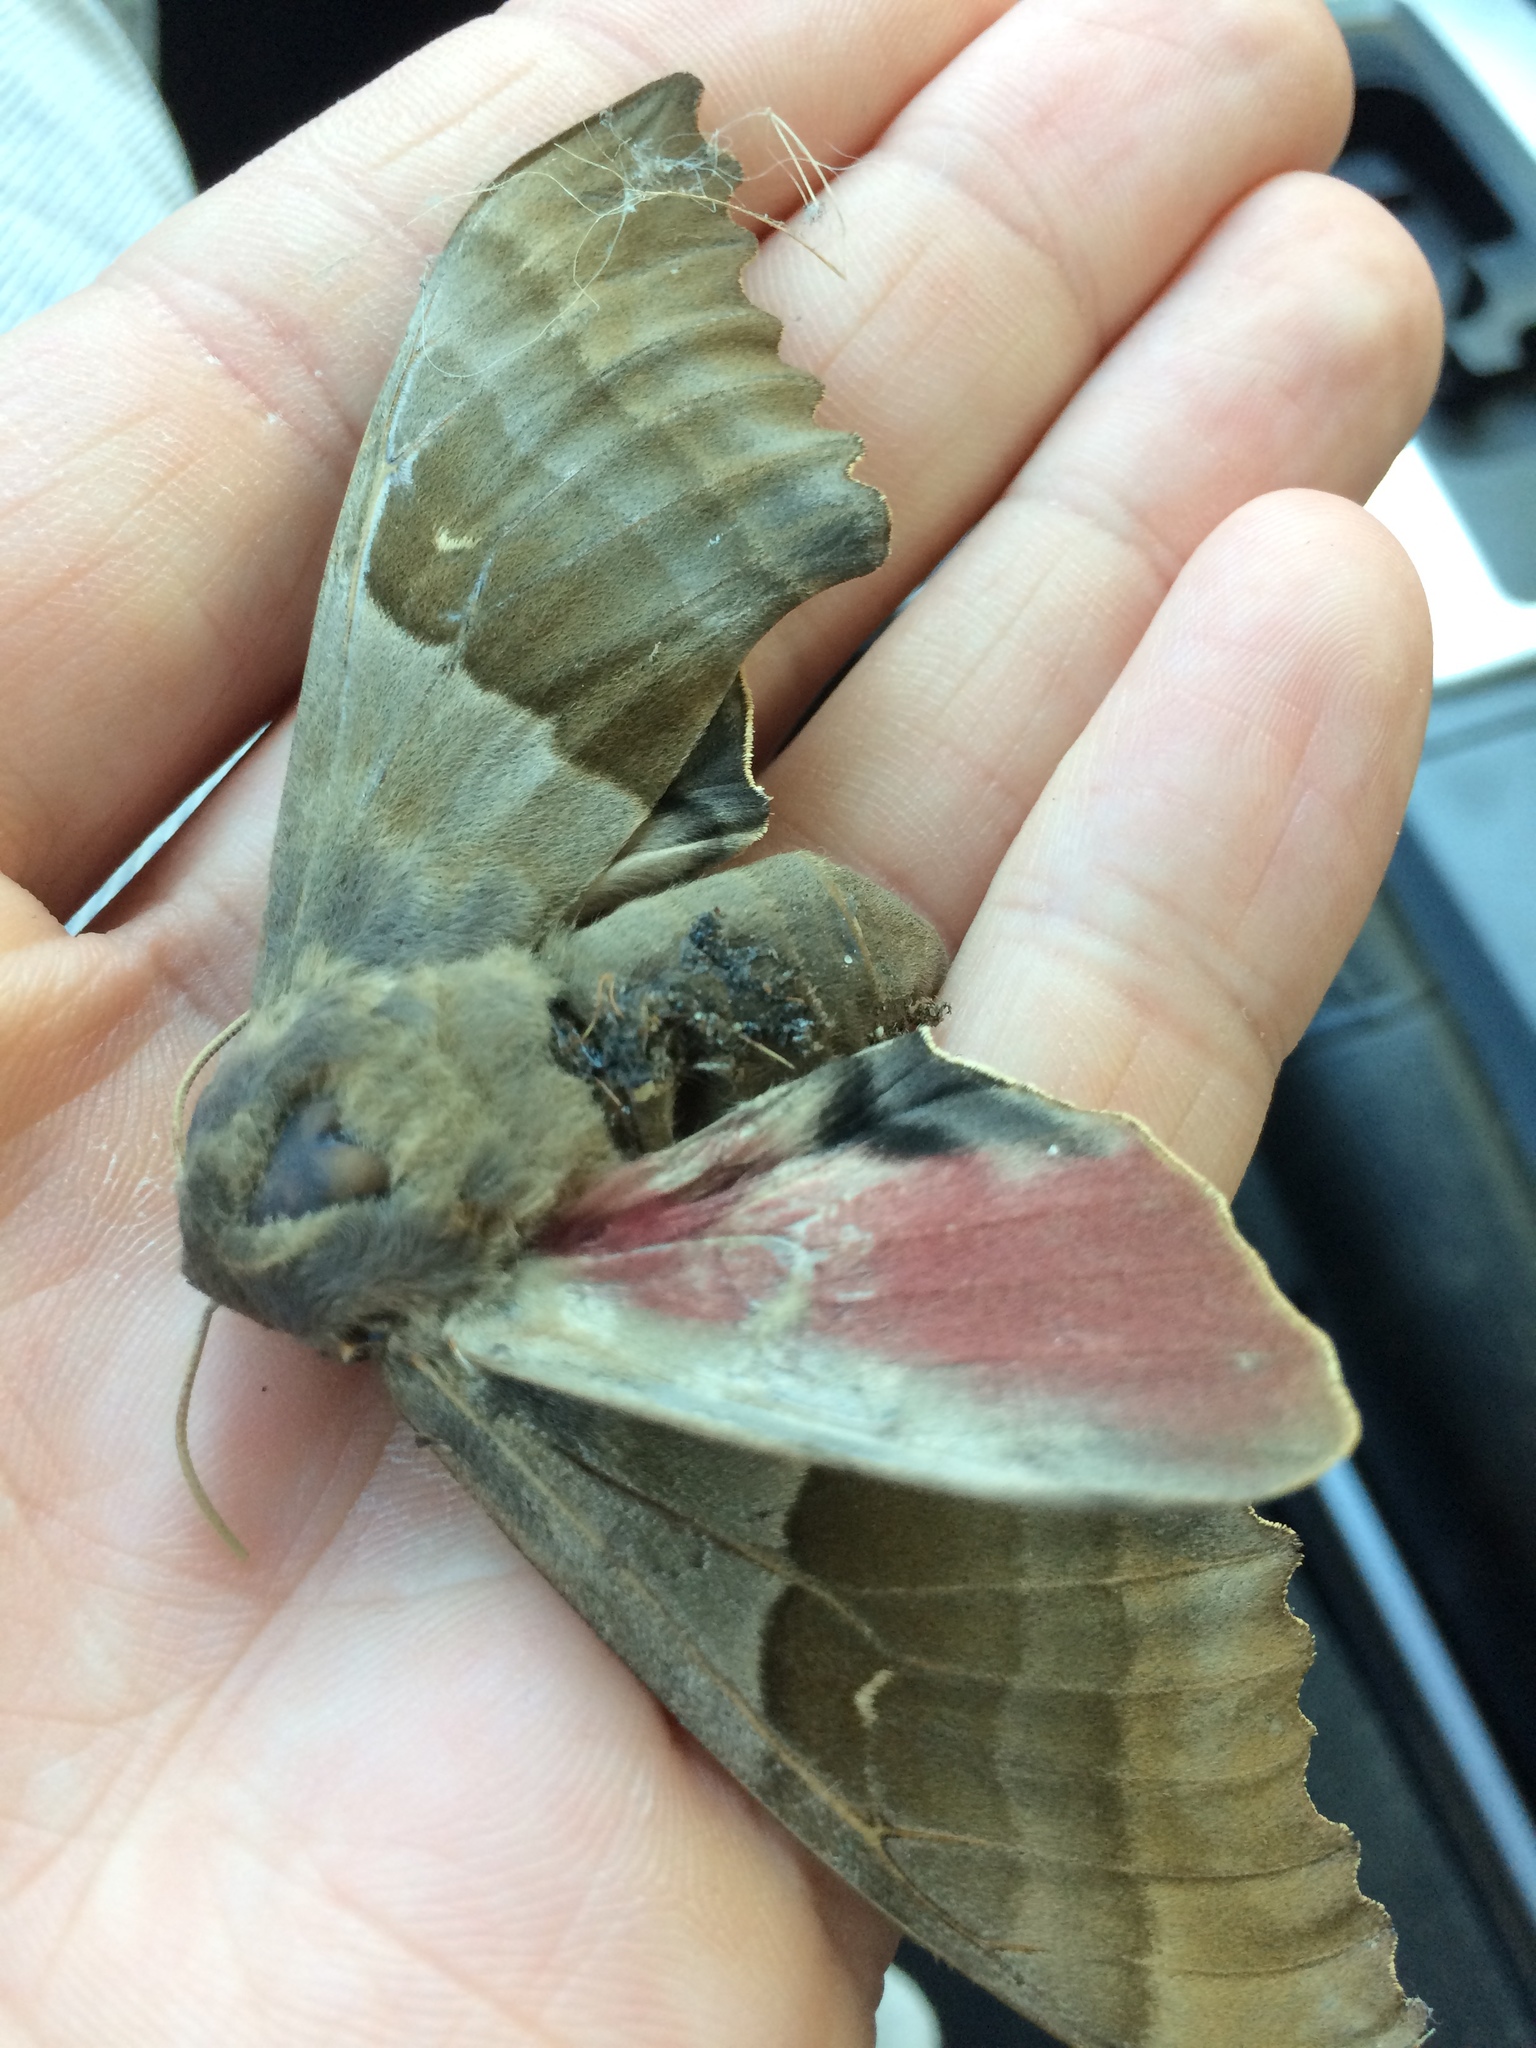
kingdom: Animalia
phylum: Arthropoda
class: Insecta
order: Lepidoptera
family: Sphingidae
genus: Pachysphinx
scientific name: Pachysphinx modesta
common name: Big poplar sphinx
